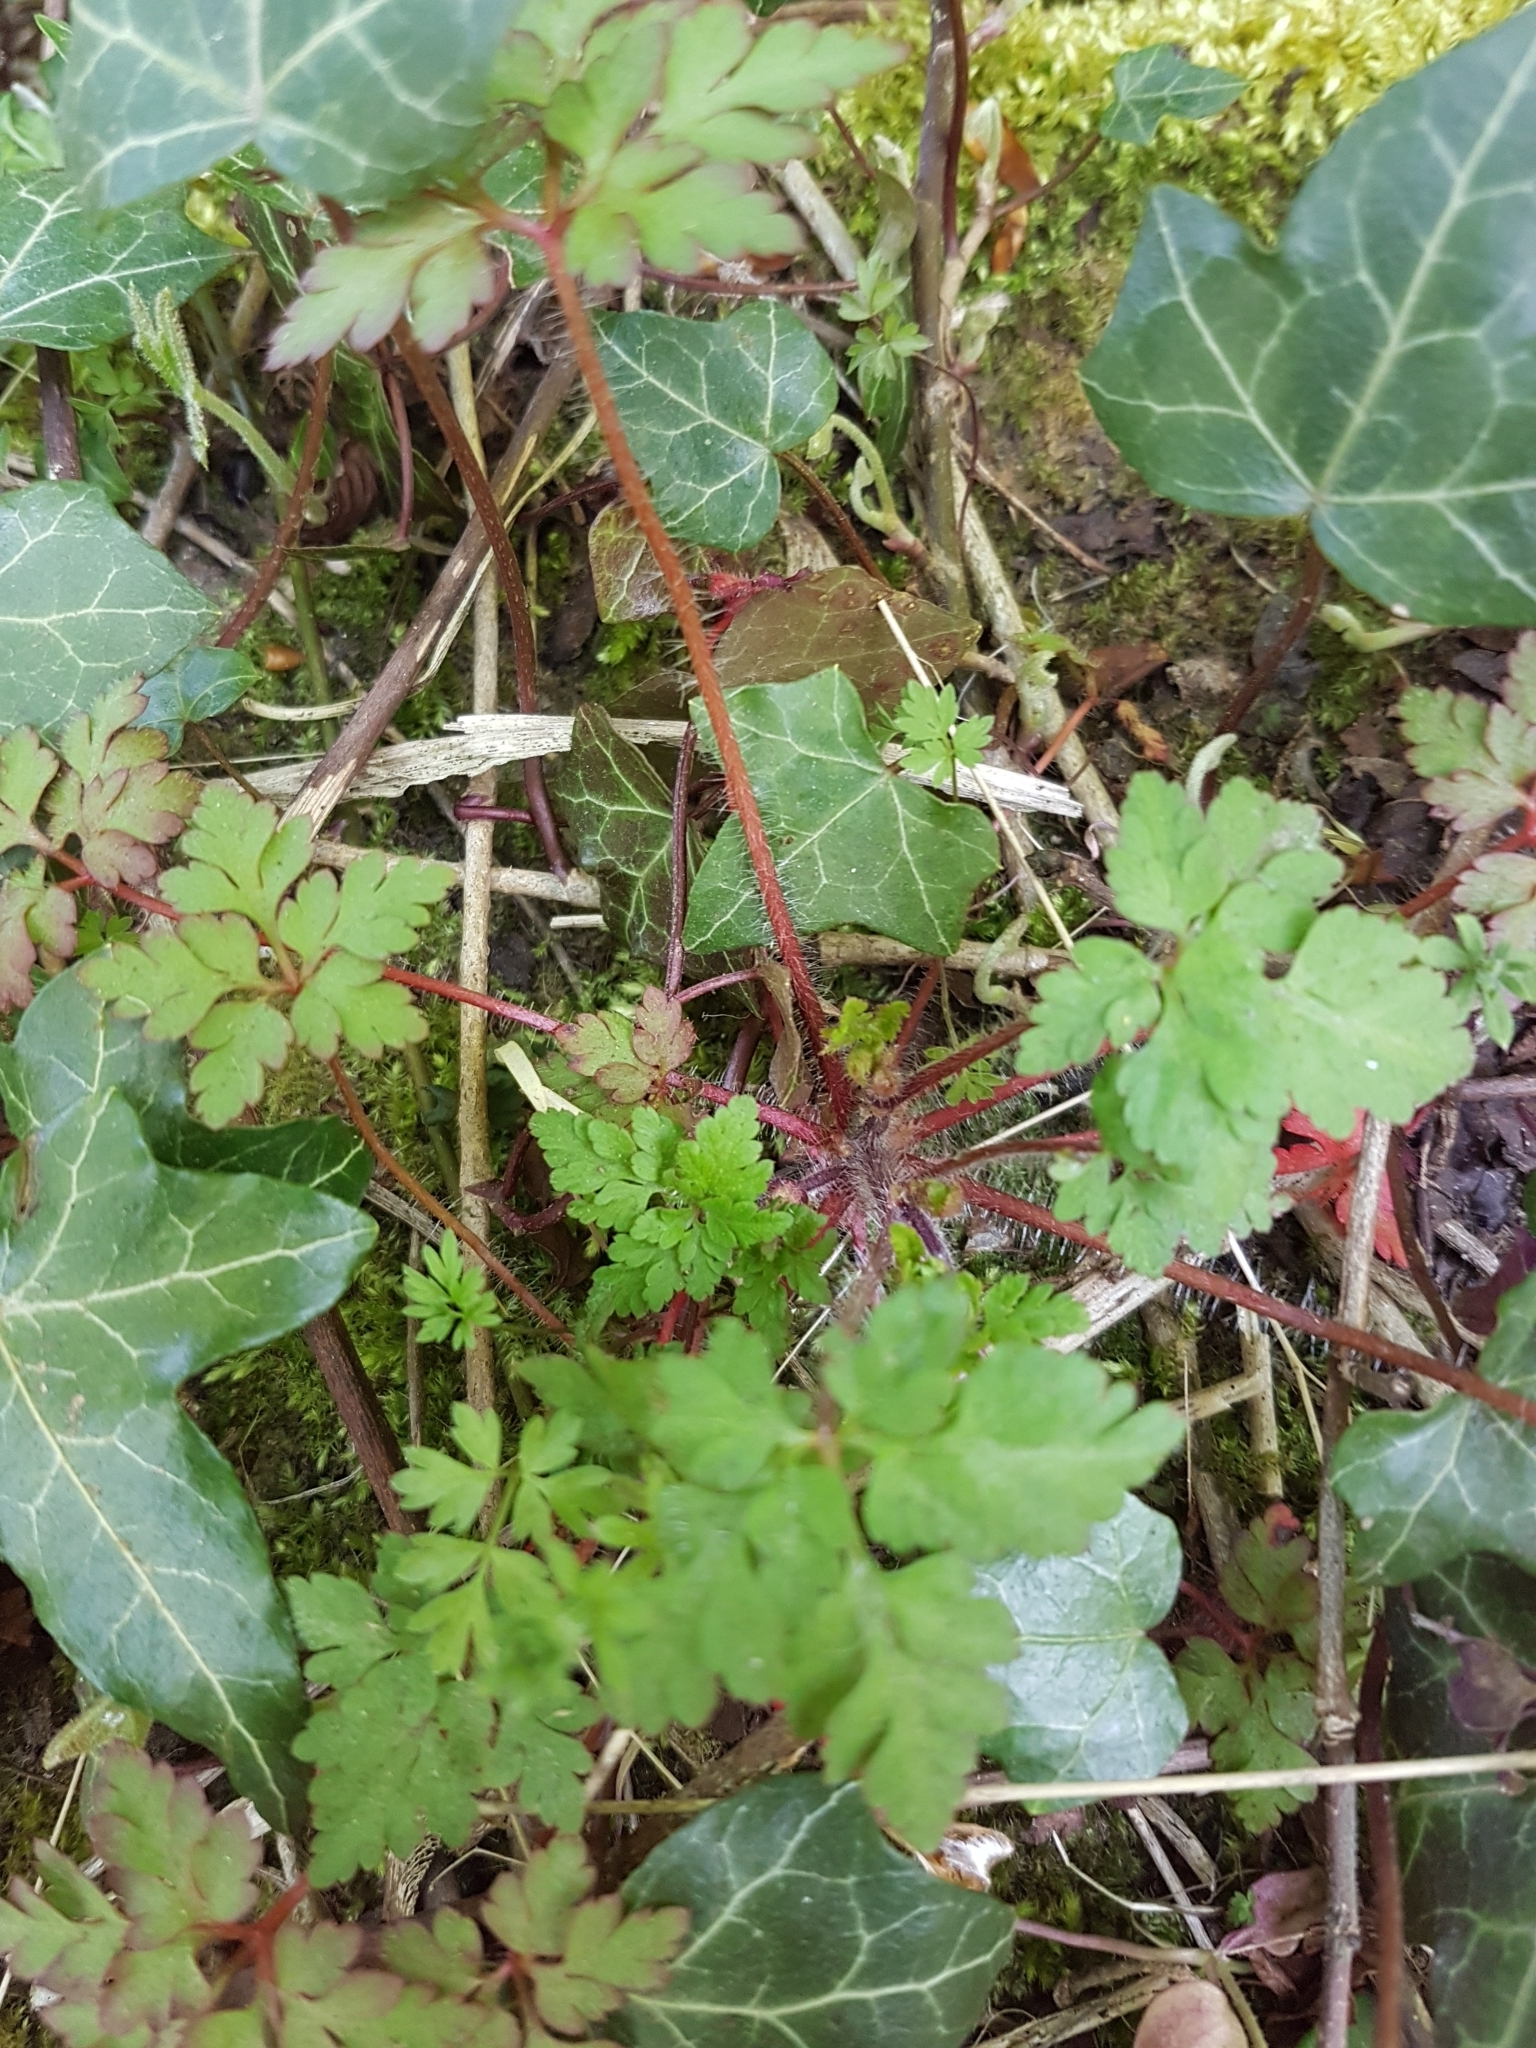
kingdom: Plantae
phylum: Tracheophyta
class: Magnoliopsida
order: Geraniales
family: Geraniaceae
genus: Geranium
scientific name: Geranium robertianum
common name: Herb-robert
